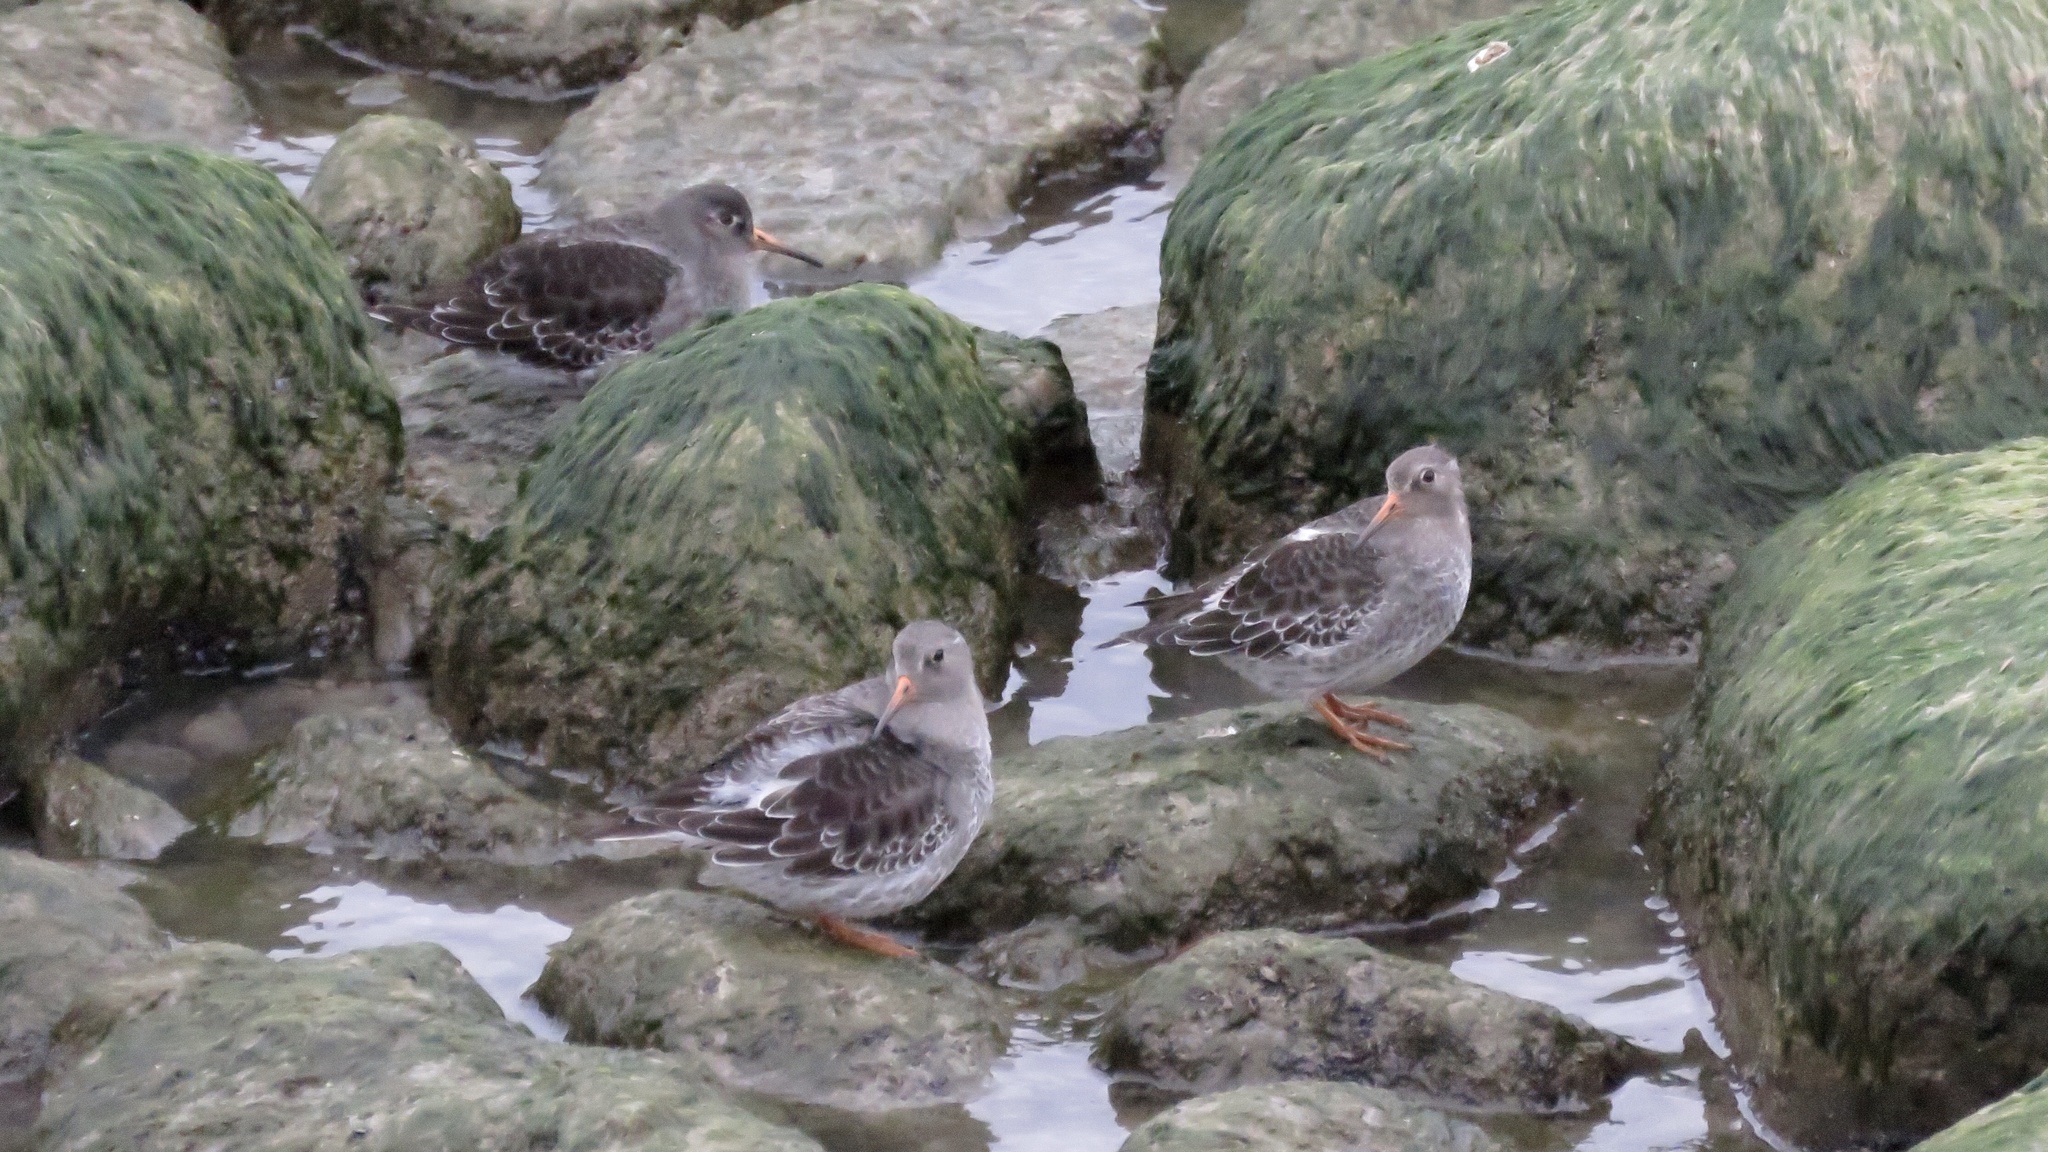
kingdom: Animalia
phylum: Chordata
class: Aves
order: Charadriiformes
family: Scolopacidae
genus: Calidris
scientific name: Calidris maritima
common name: Purple sandpiper
